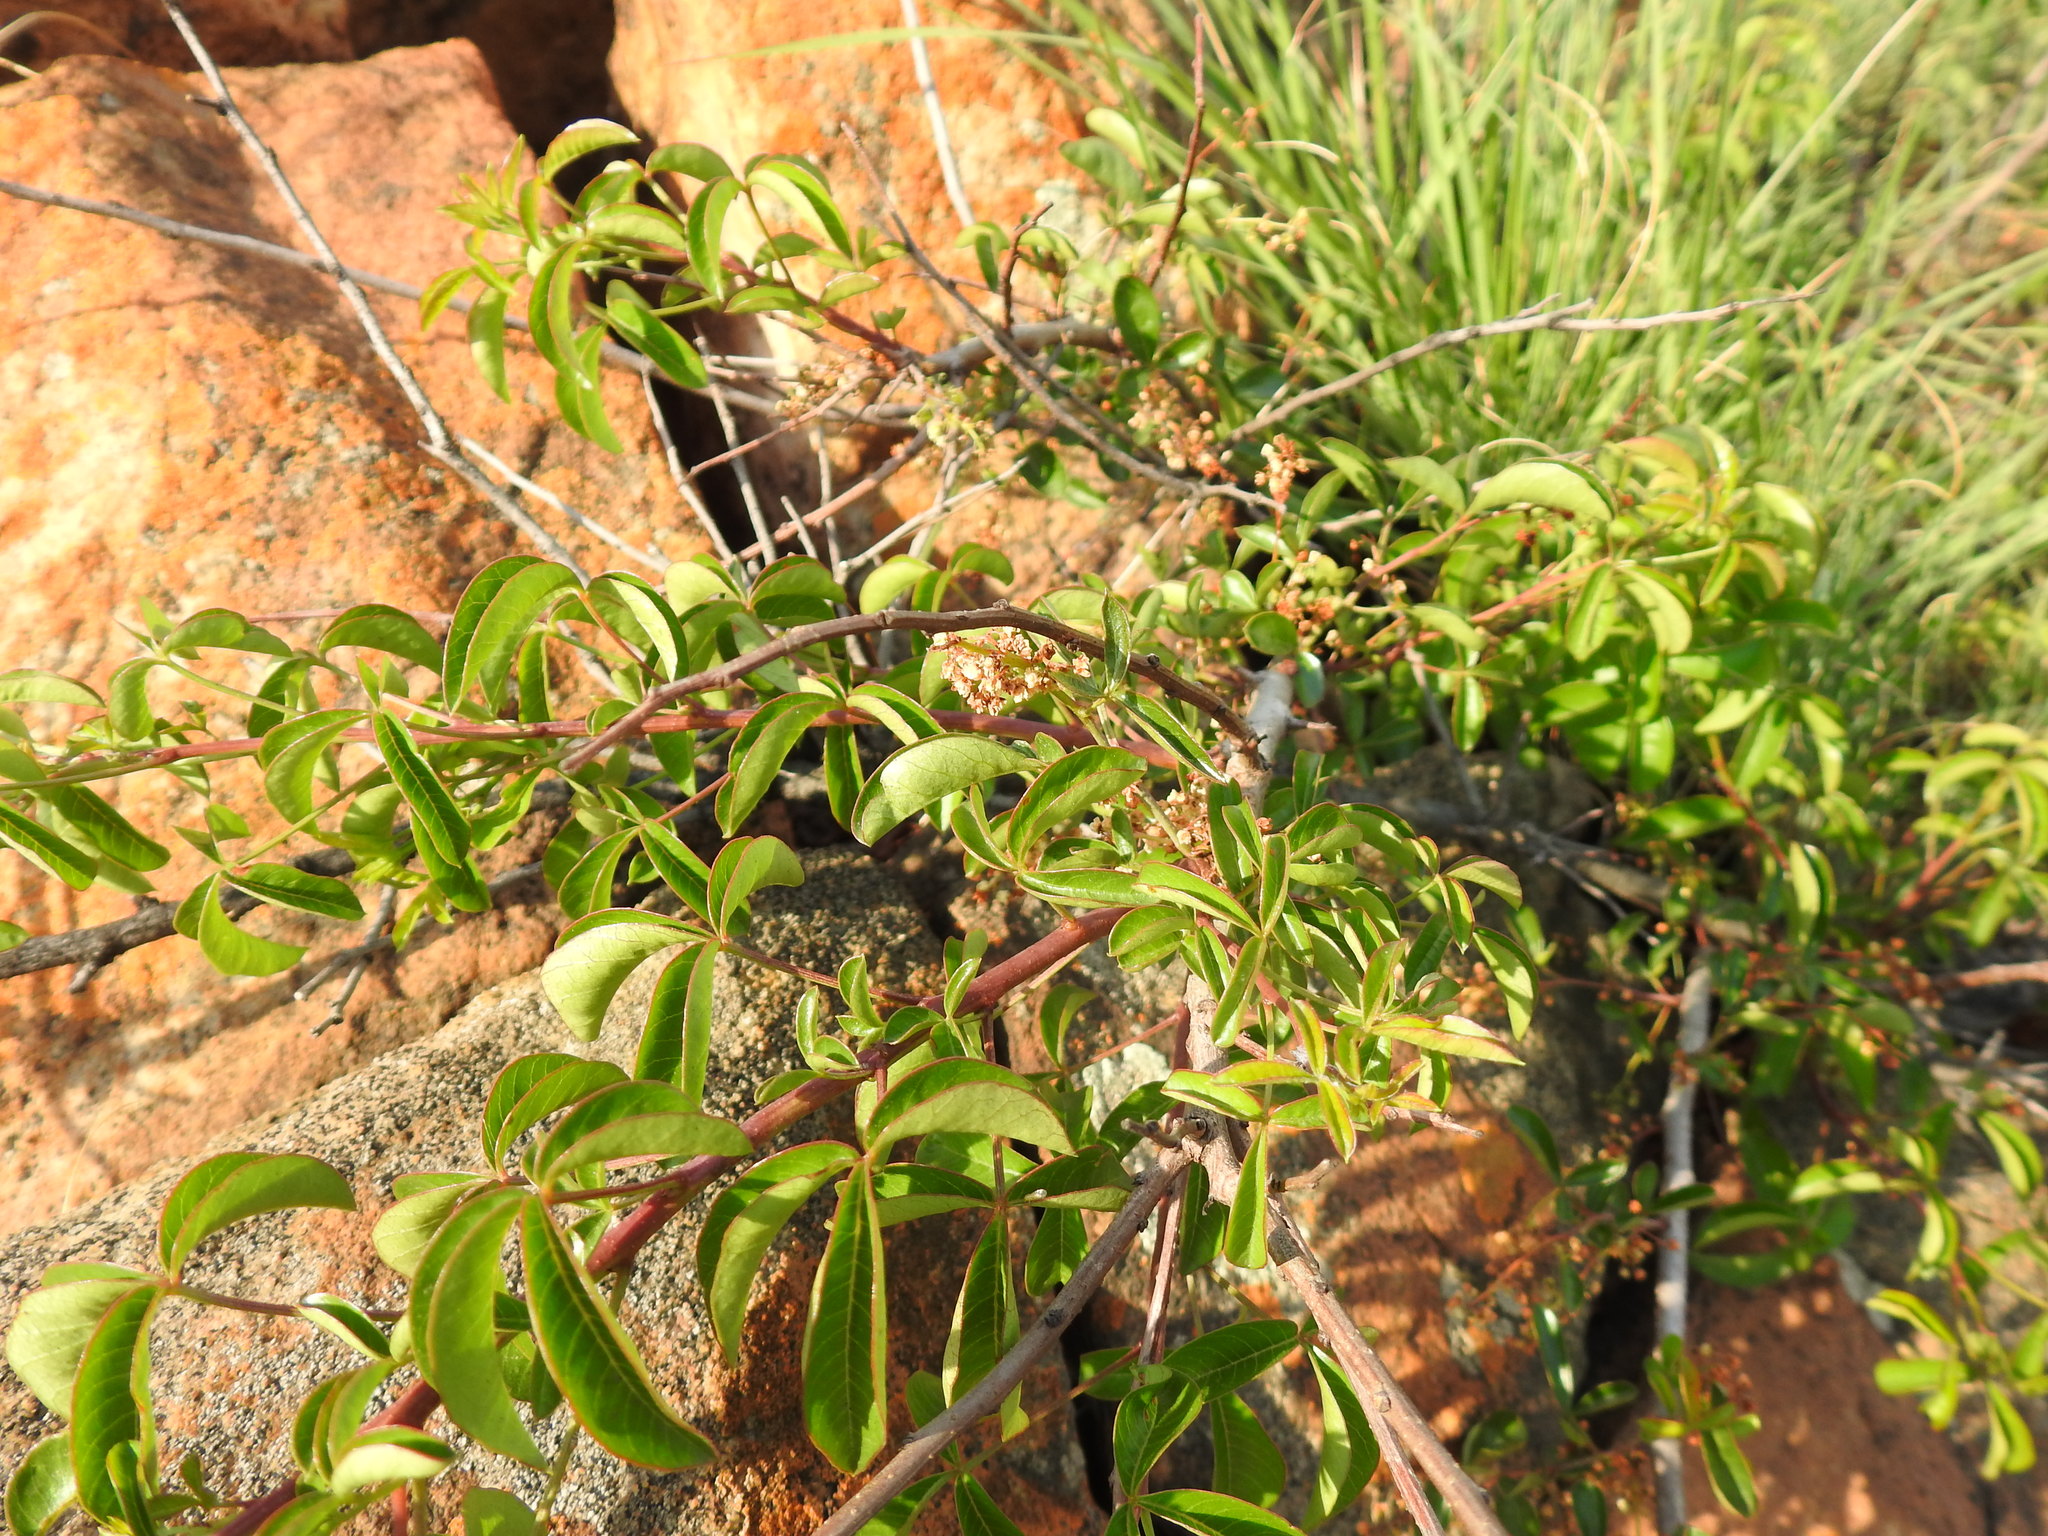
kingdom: Plantae
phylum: Tracheophyta
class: Magnoliopsida
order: Sapindales
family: Anacardiaceae
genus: Searsia
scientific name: Searsia rigida
